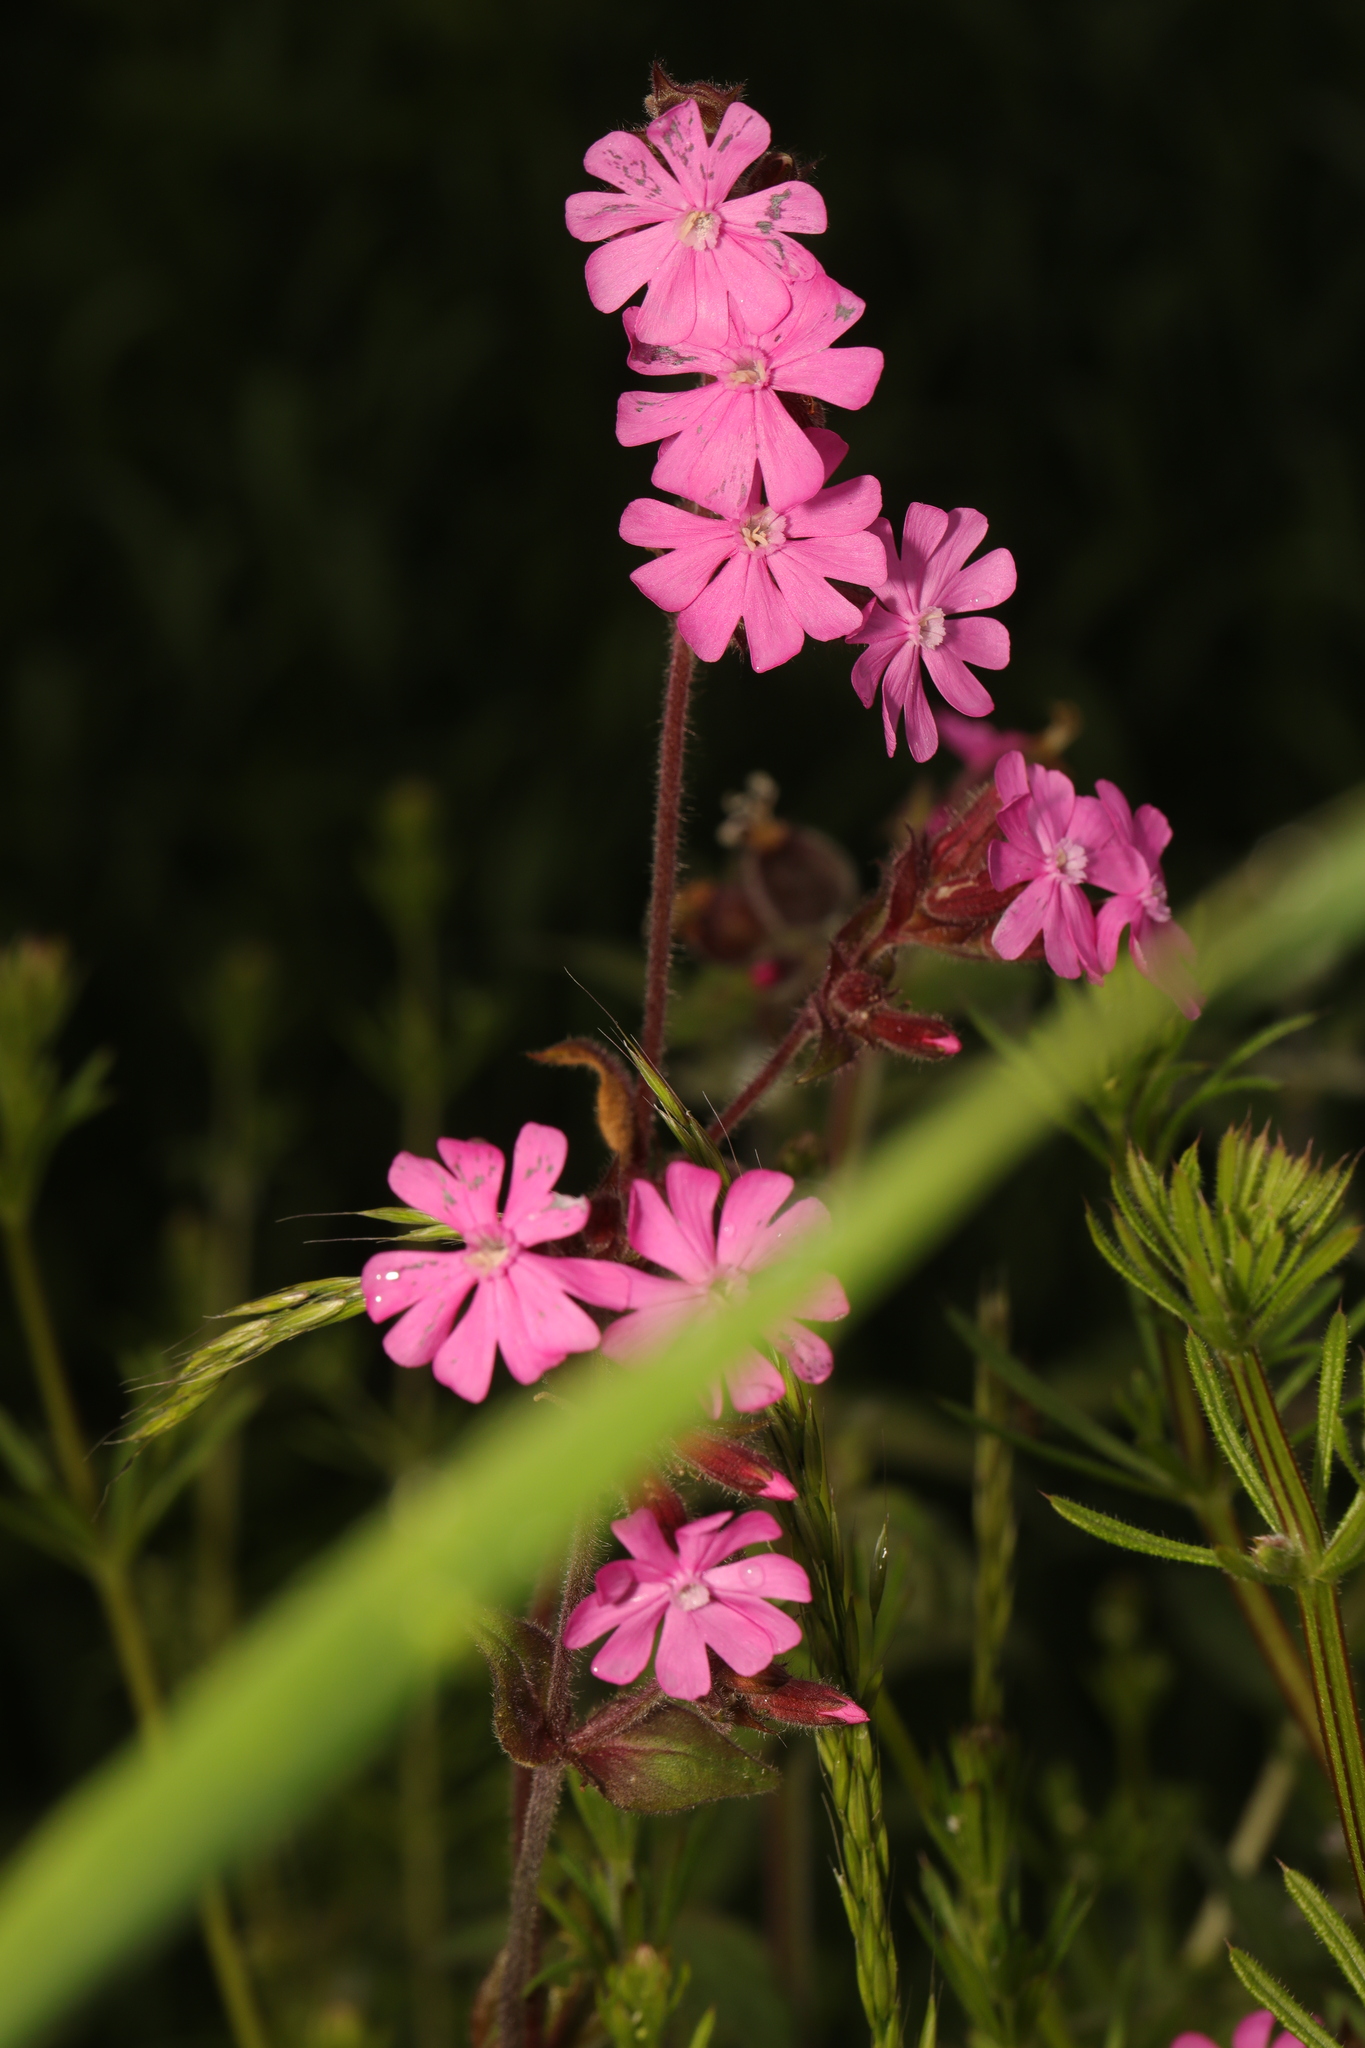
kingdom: Plantae
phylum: Tracheophyta
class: Magnoliopsida
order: Caryophyllales
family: Caryophyllaceae
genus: Silene
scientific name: Silene dioica
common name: Red campion
